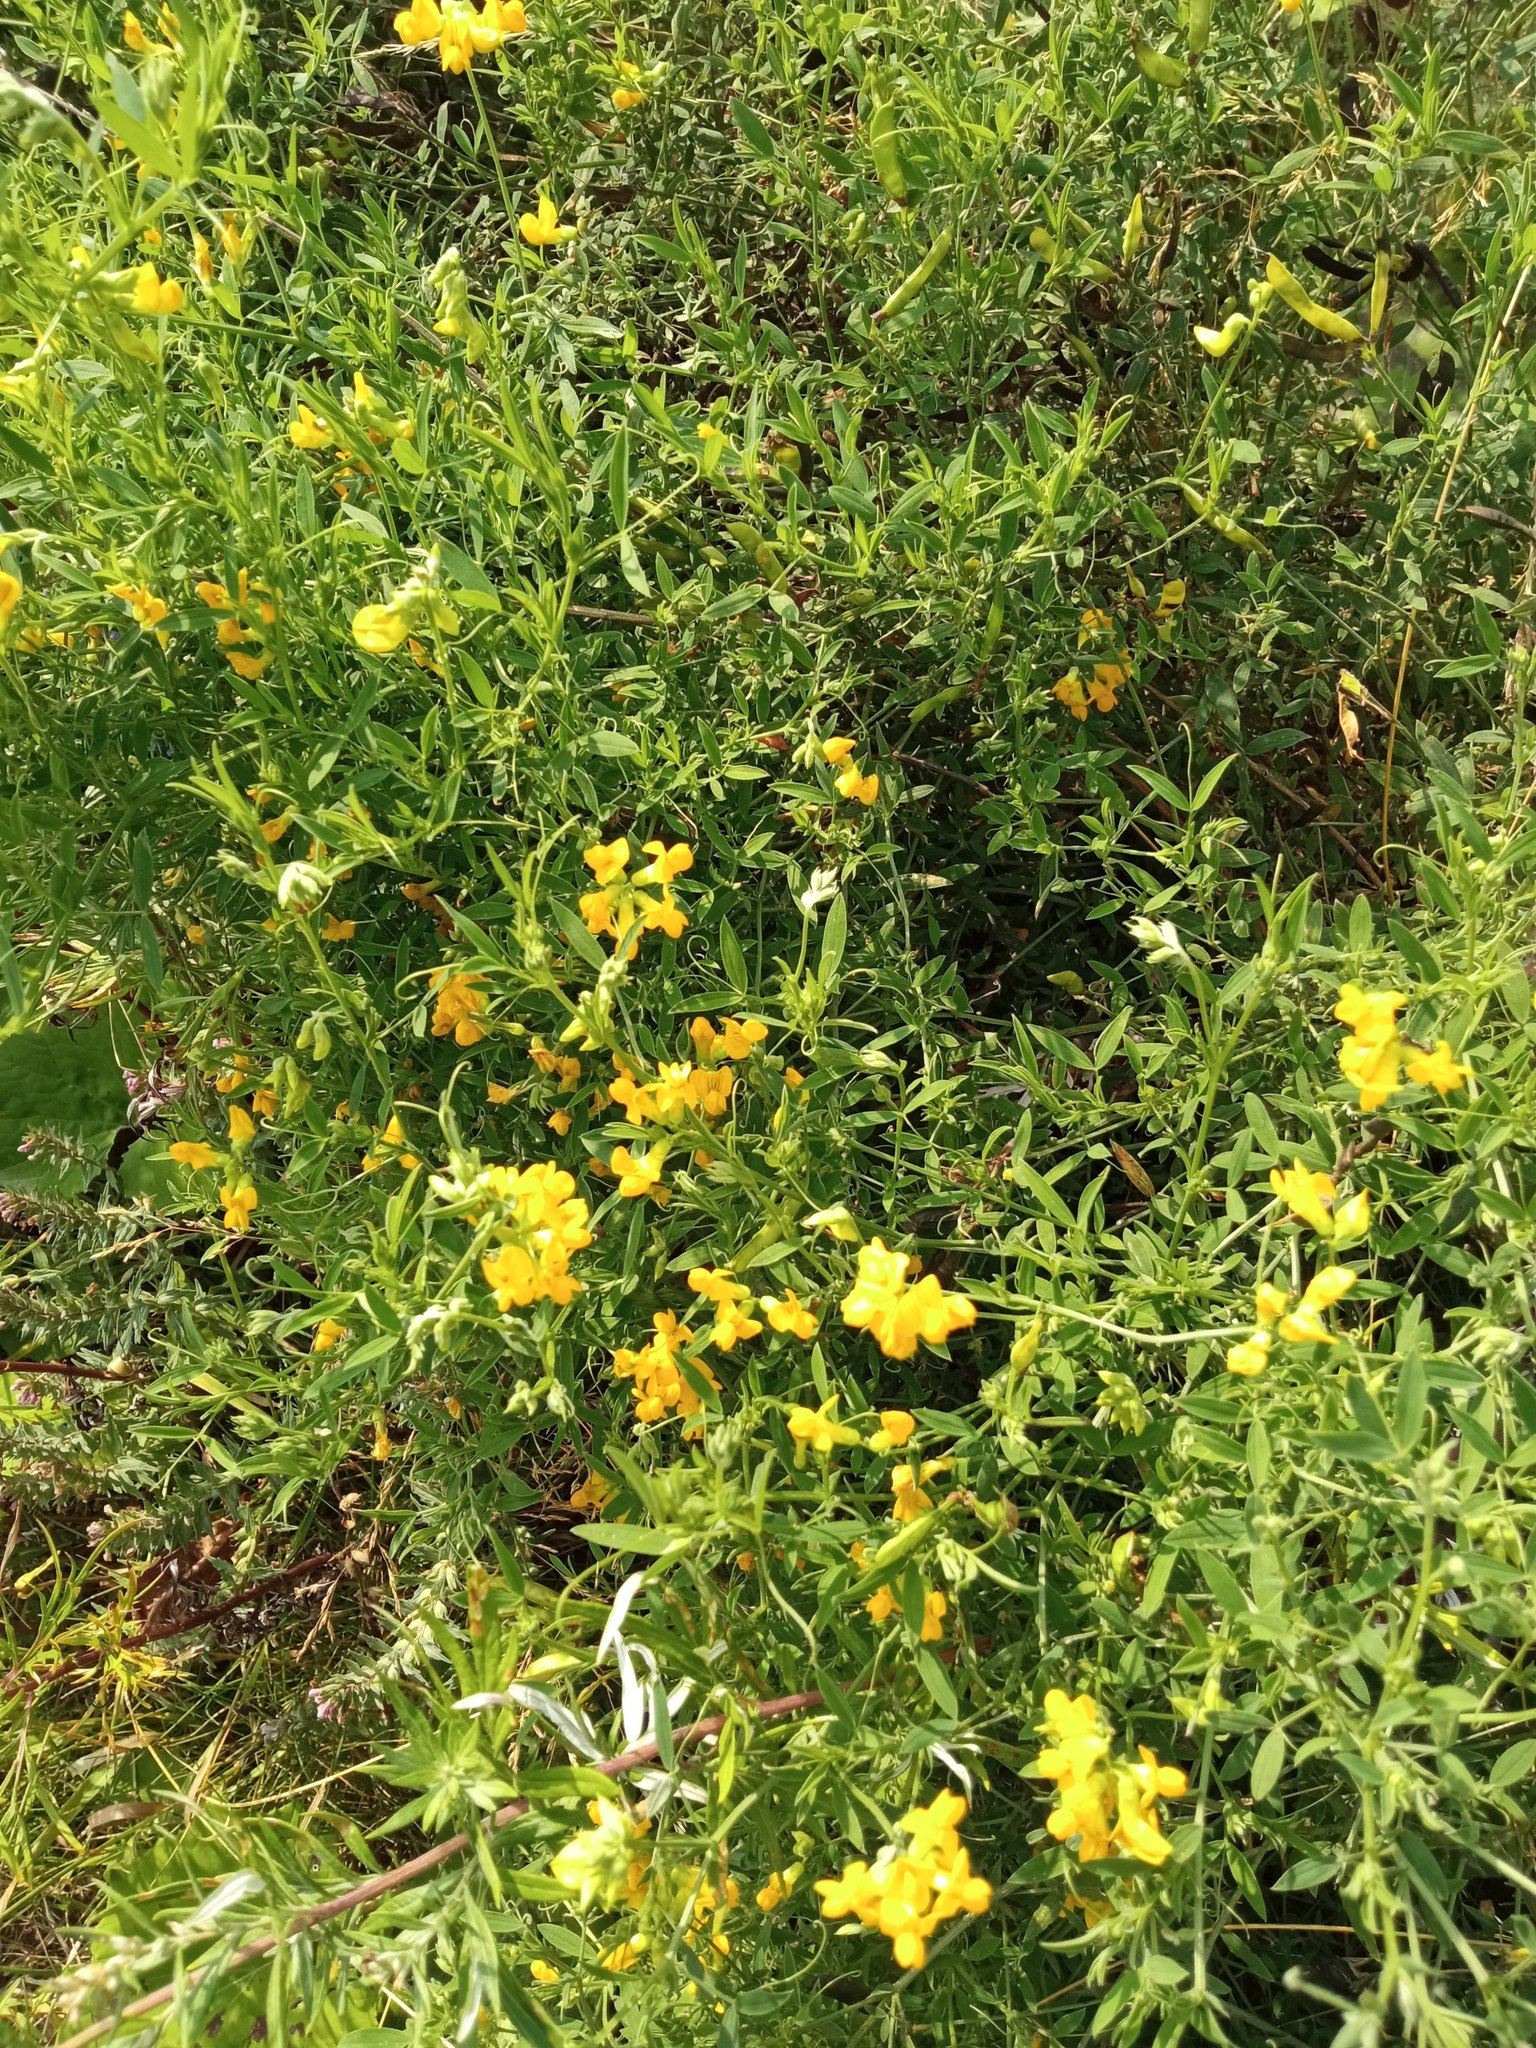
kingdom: Plantae
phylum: Tracheophyta
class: Magnoliopsida
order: Fabales
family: Fabaceae
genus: Lathyrus
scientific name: Lathyrus pratensis
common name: Meadow vetchling
